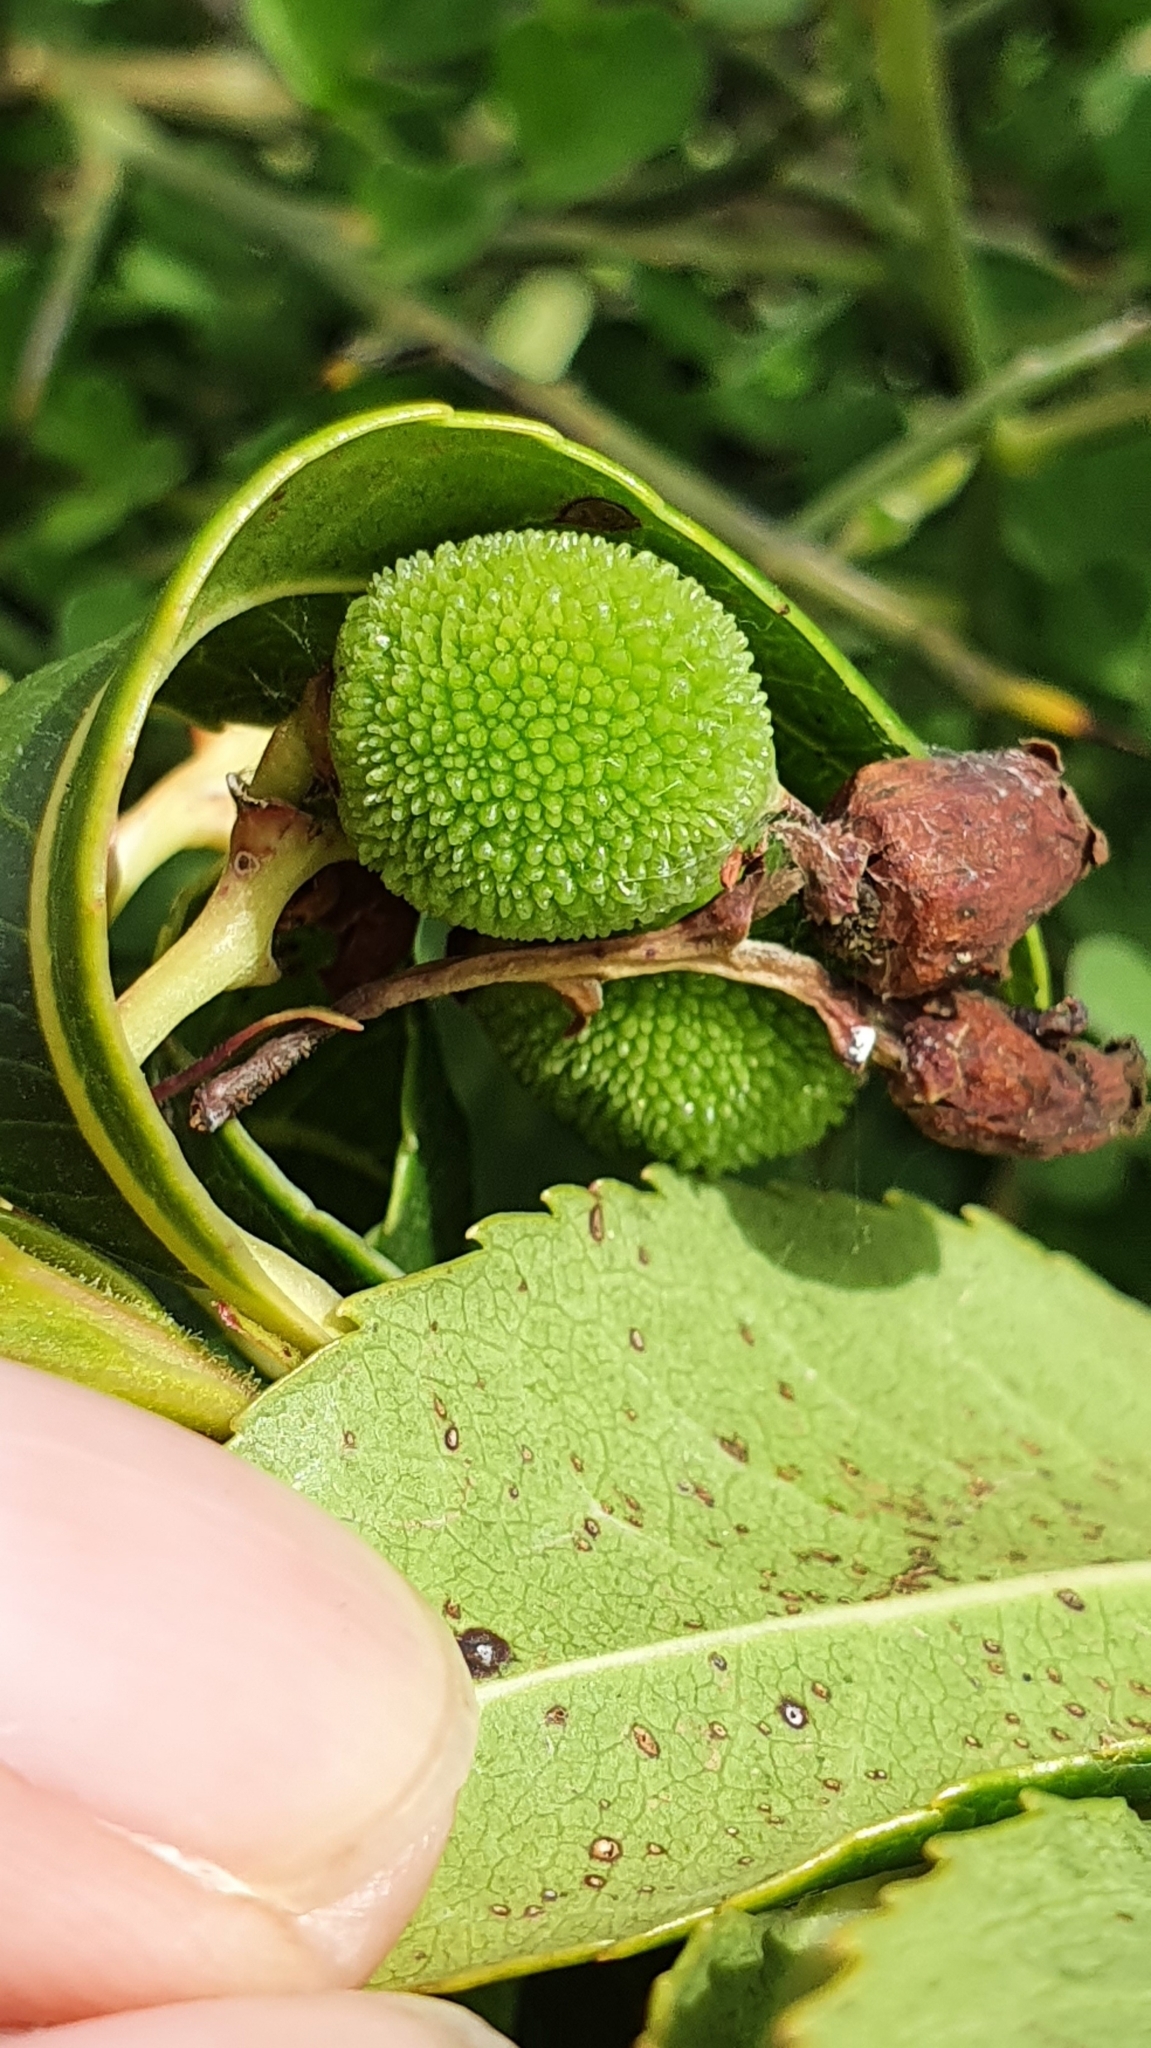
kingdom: Plantae
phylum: Tracheophyta
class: Magnoliopsida
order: Ericales
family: Ericaceae
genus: Arbutus
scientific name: Arbutus unedo
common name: Strawberry-tree
